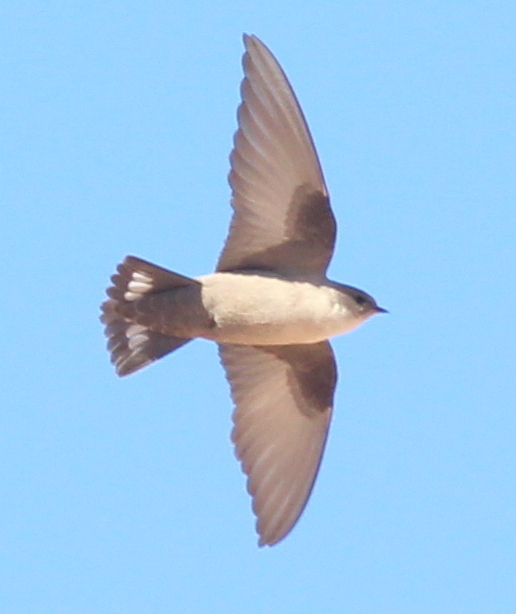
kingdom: Animalia
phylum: Chordata
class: Aves
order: Passeriformes
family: Hirundinidae
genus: Ptyonoprogne
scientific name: Ptyonoprogne fuligula
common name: Rock martin
